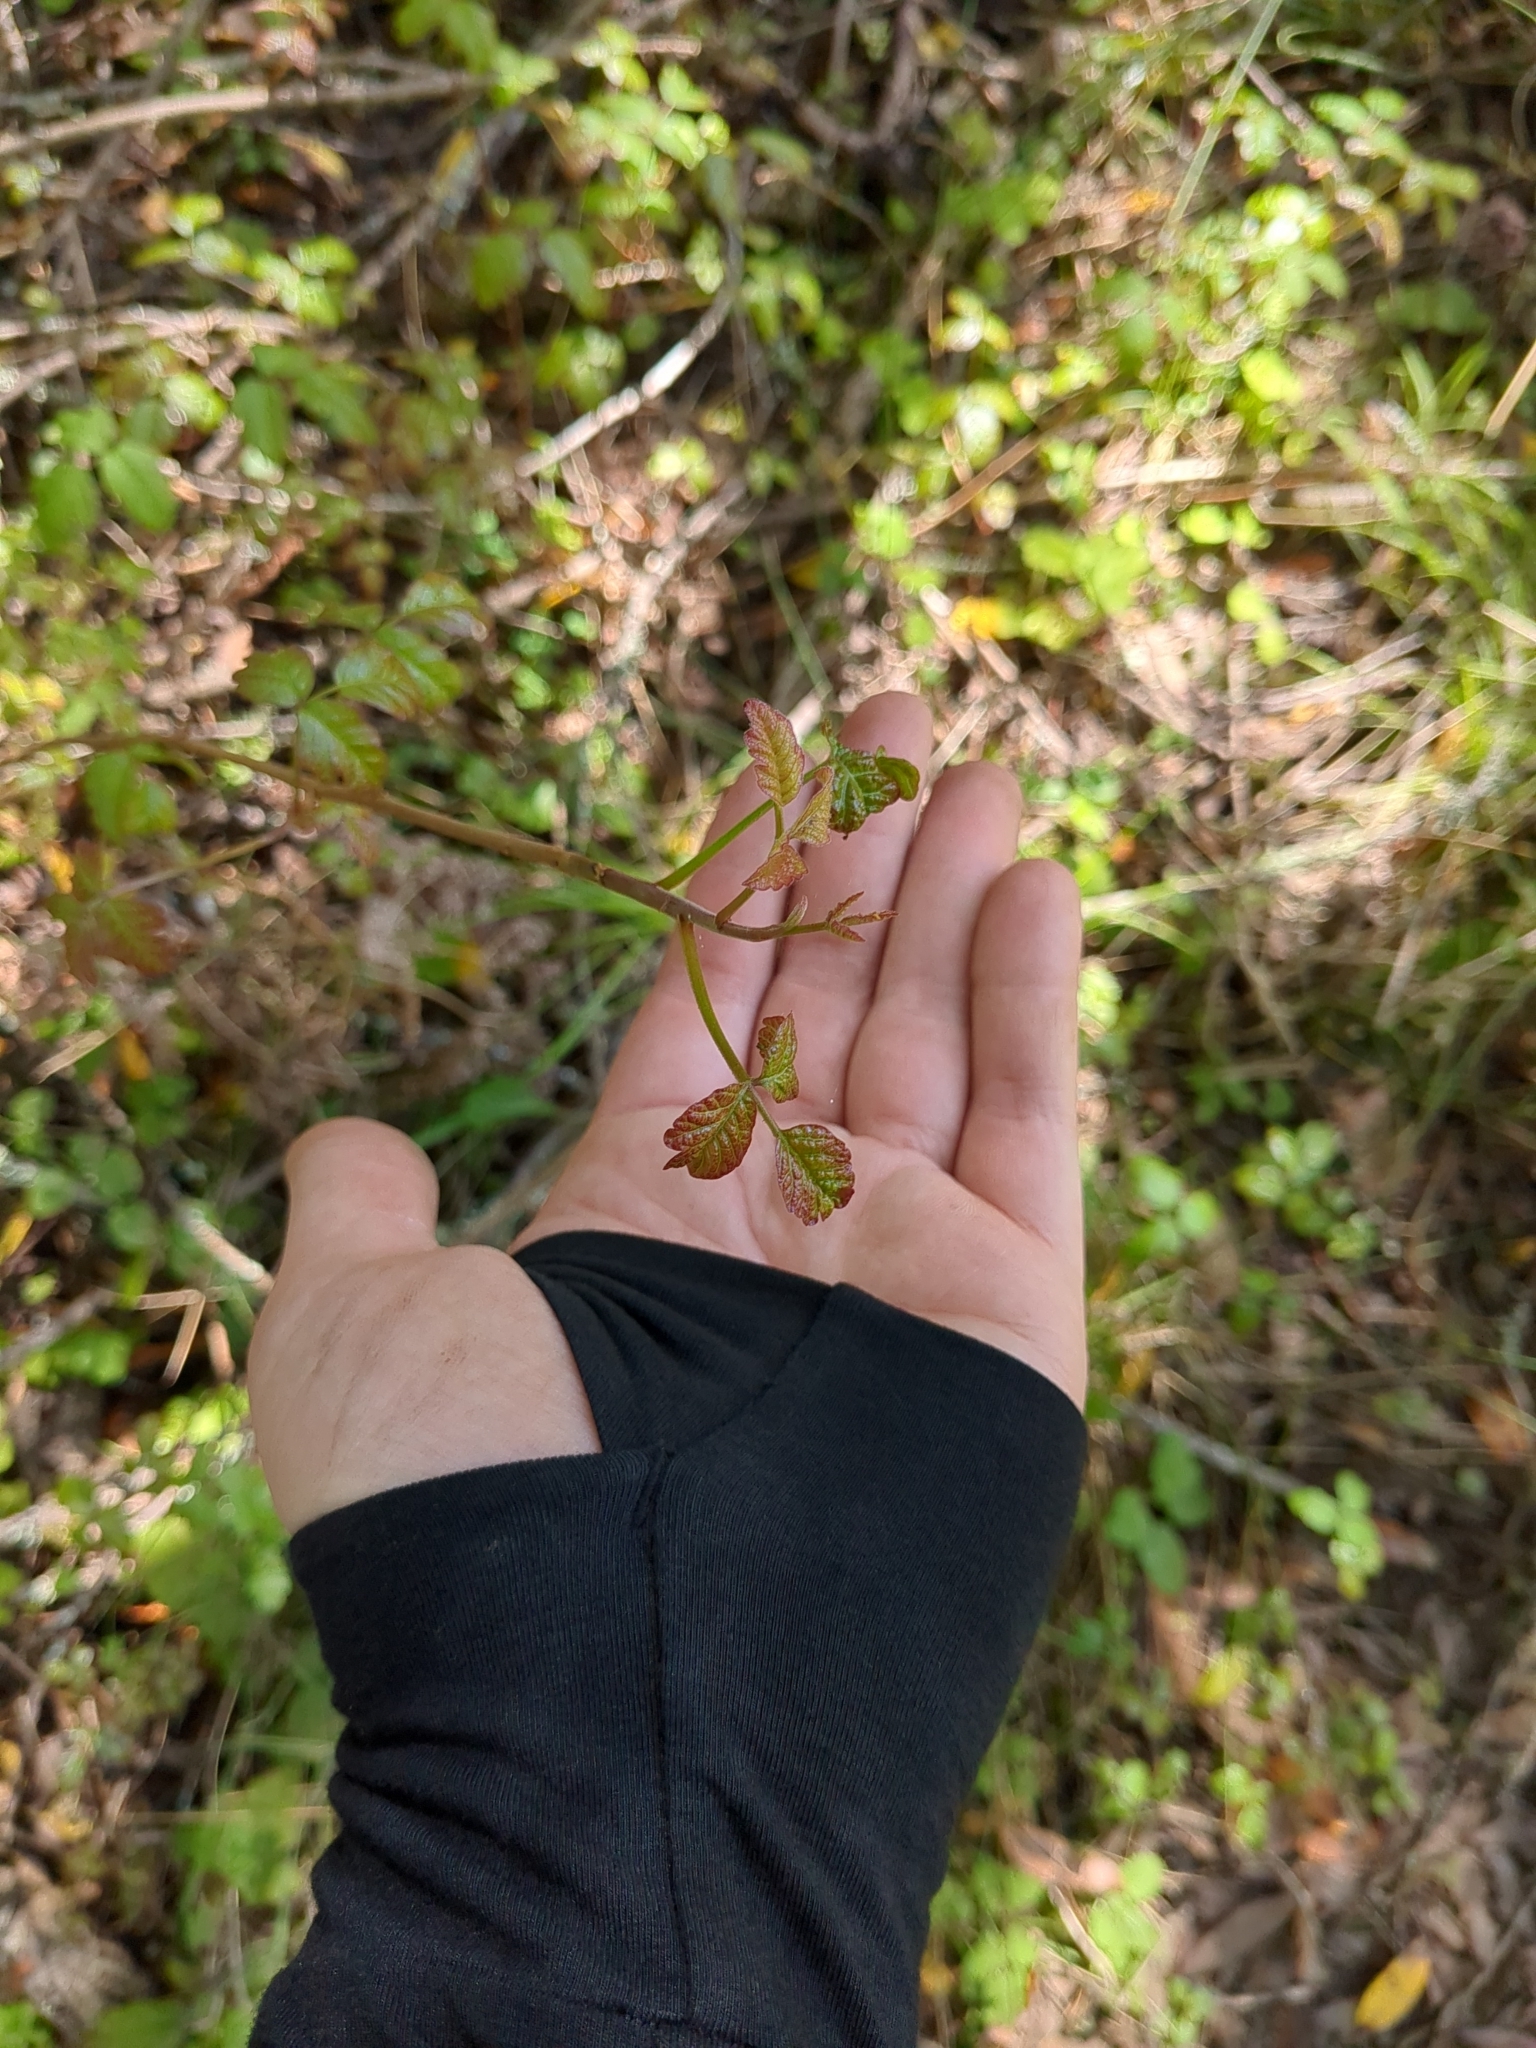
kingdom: Plantae
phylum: Tracheophyta
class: Magnoliopsida
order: Sapindales
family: Anacardiaceae
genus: Toxicodendron
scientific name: Toxicodendron diversilobum
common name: Pacific poison-oak
